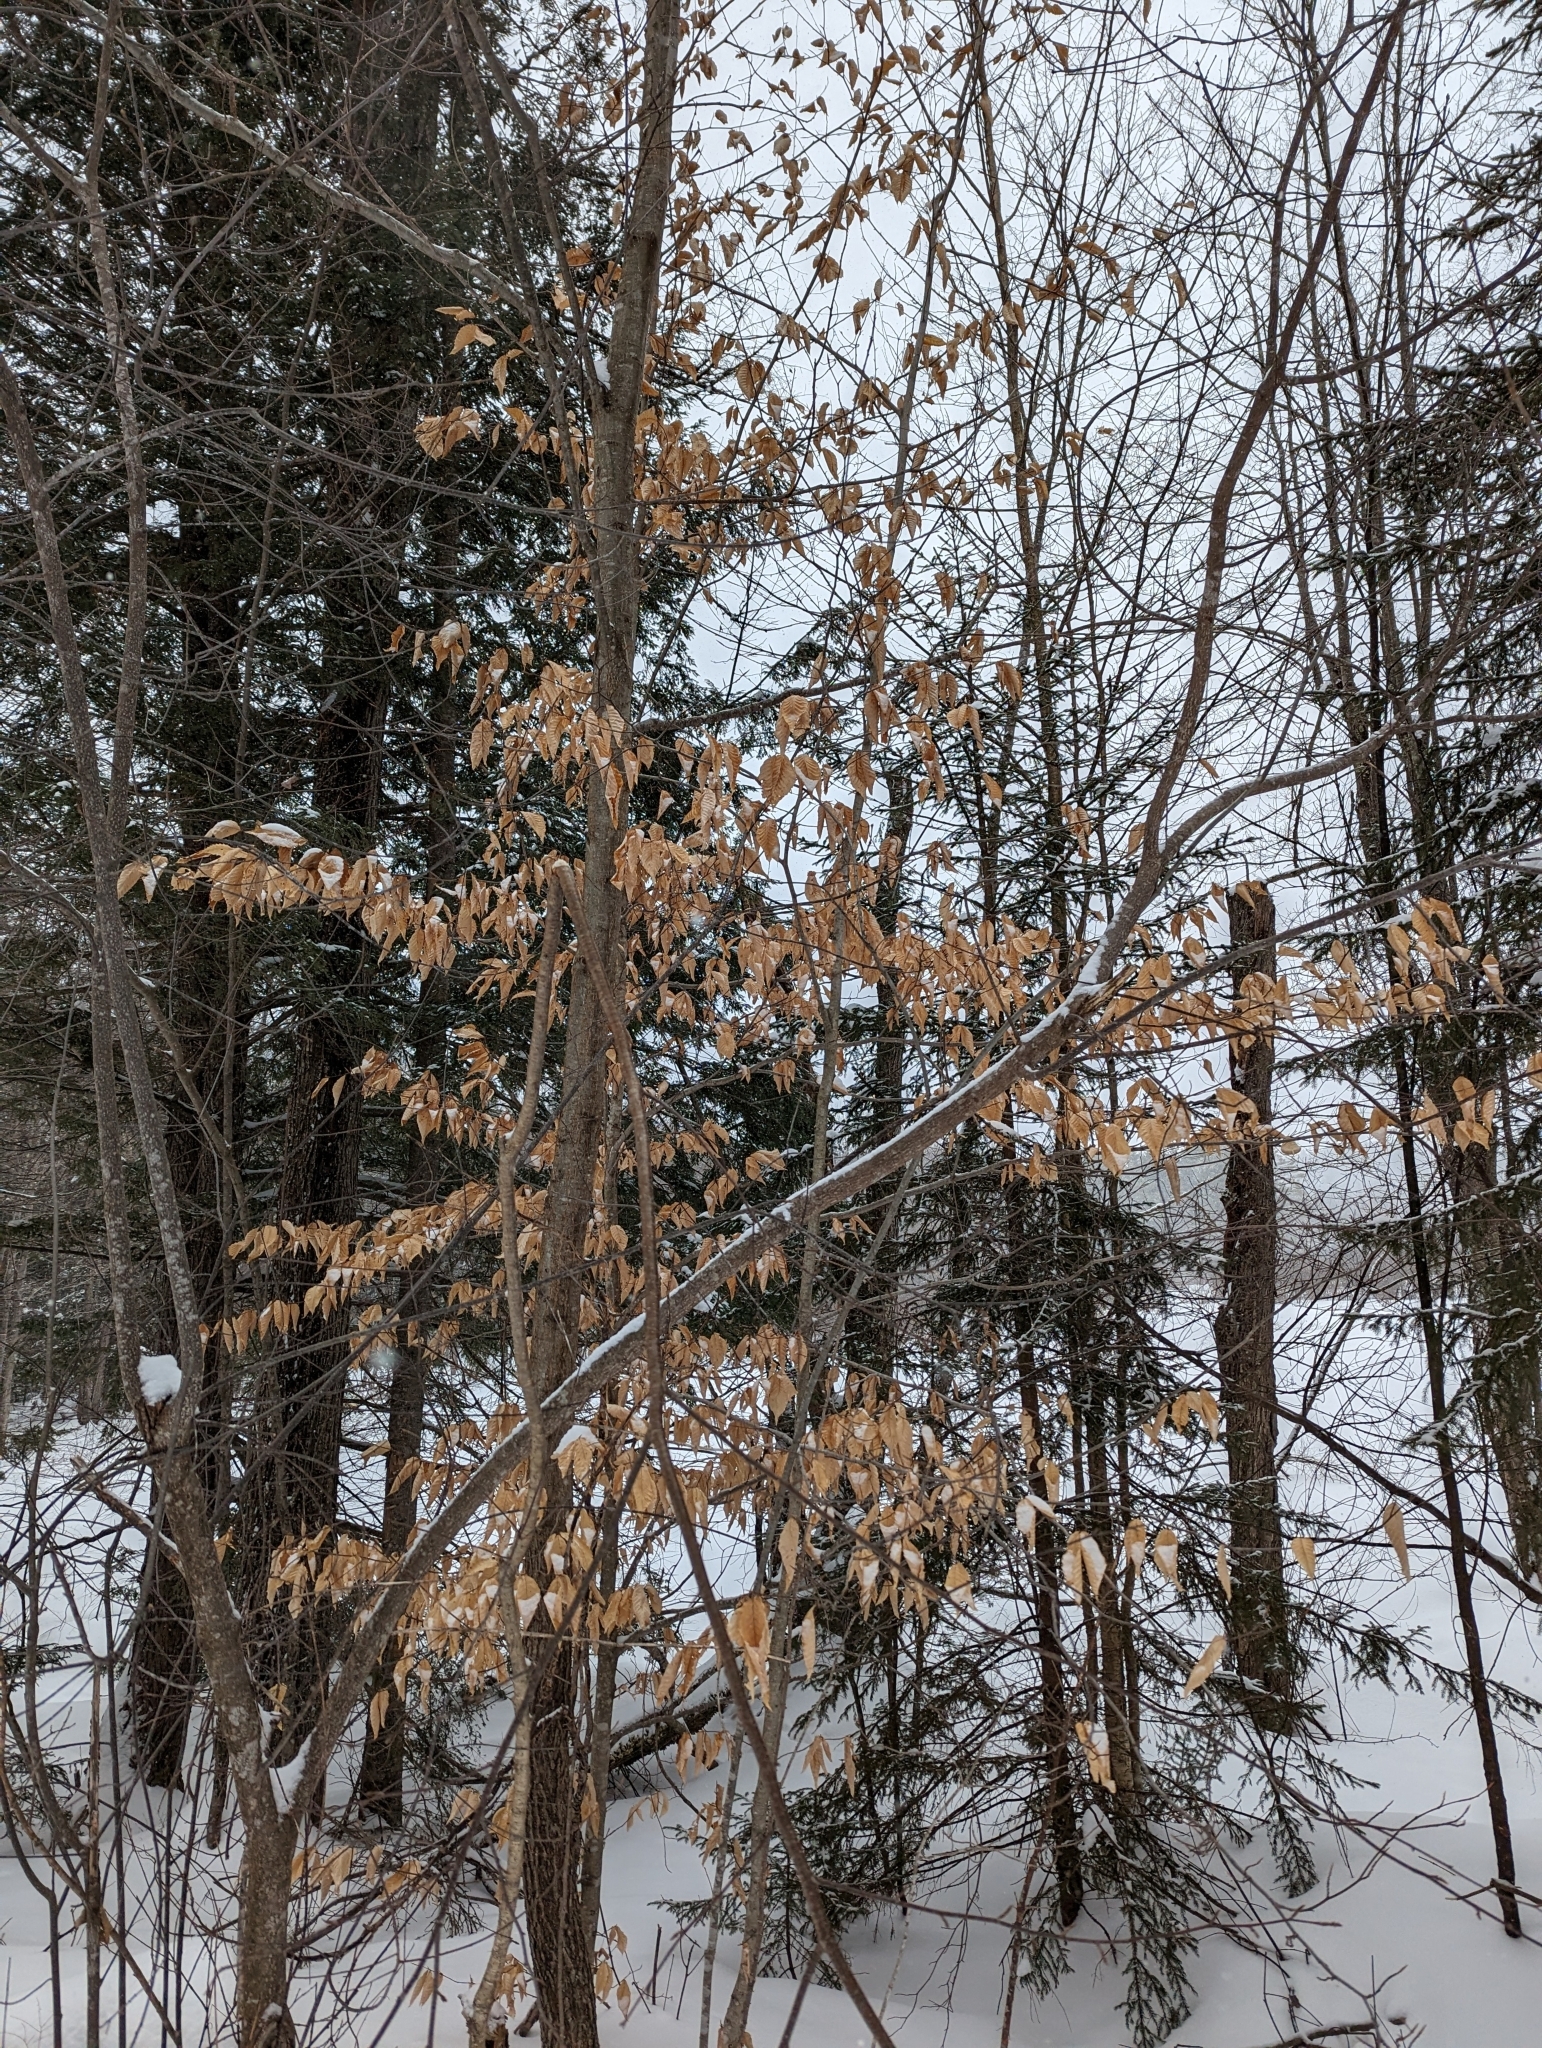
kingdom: Plantae
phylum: Tracheophyta
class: Magnoliopsida
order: Fagales
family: Fagaceae
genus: Fagus
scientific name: Fagus grandifolia
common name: American beech
